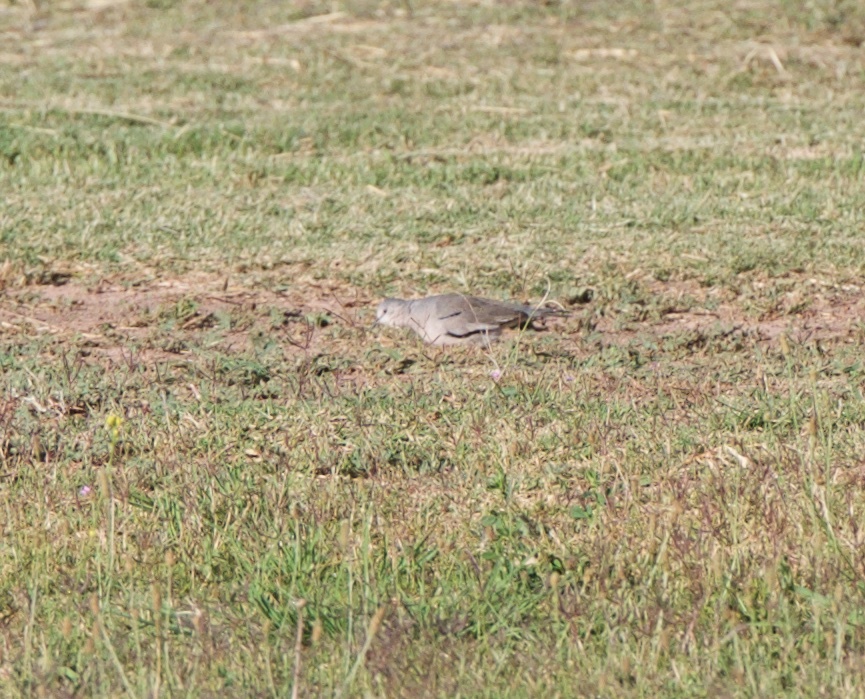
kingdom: Animalia
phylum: Chordata
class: Aves
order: Columbiformes
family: Columbidae
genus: Columbina
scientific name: Columbina picui
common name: Picui ground dove
